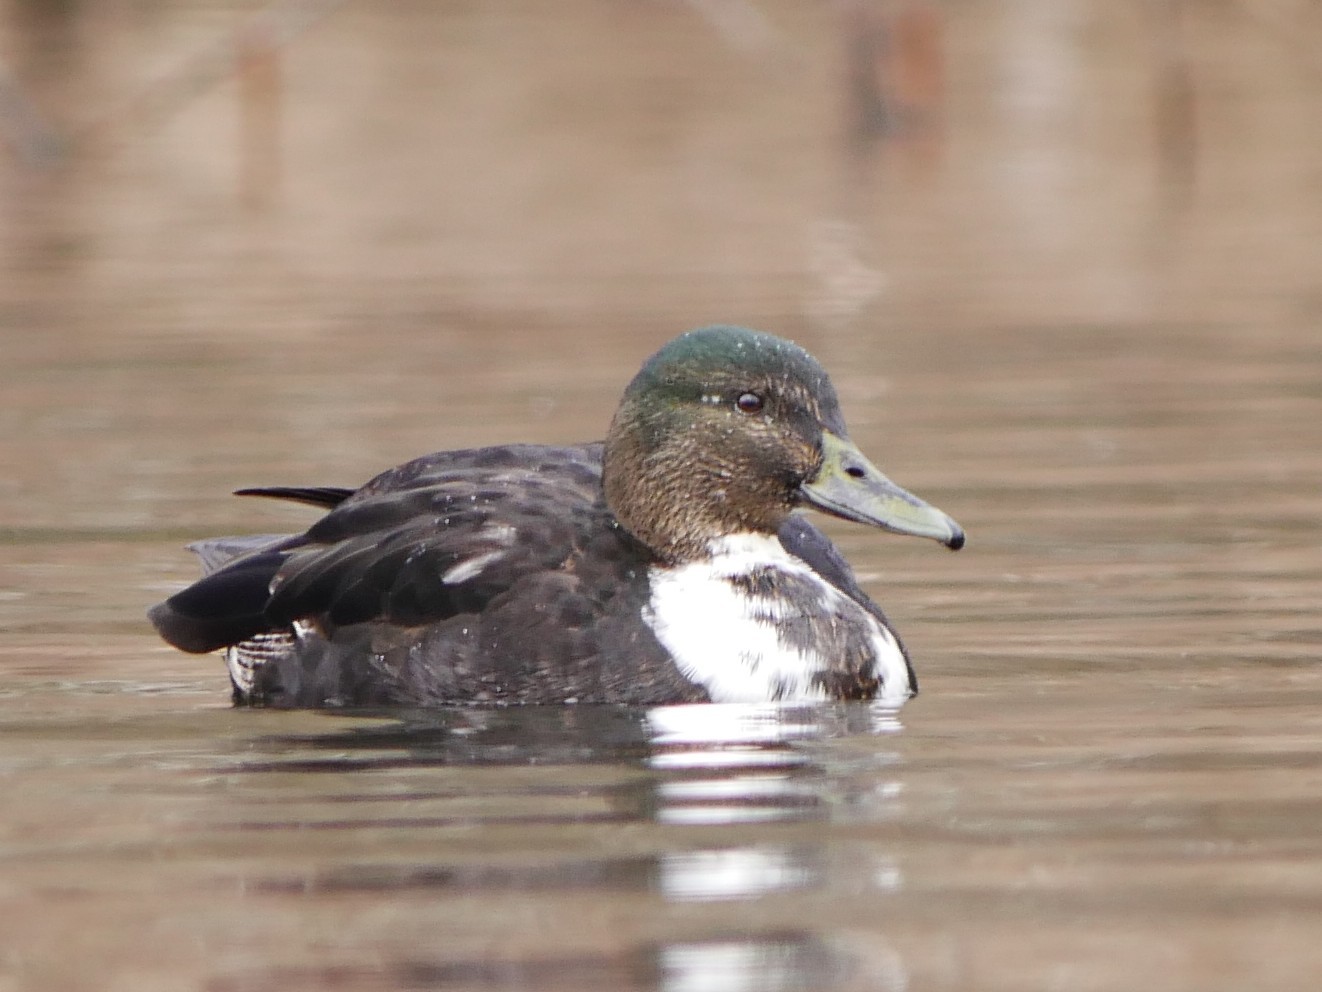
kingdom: Animalia
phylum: Chordata
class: Aves
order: Anseriformes
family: Anatidae
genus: Anas
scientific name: Anas platyrhynchos
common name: Mallard
